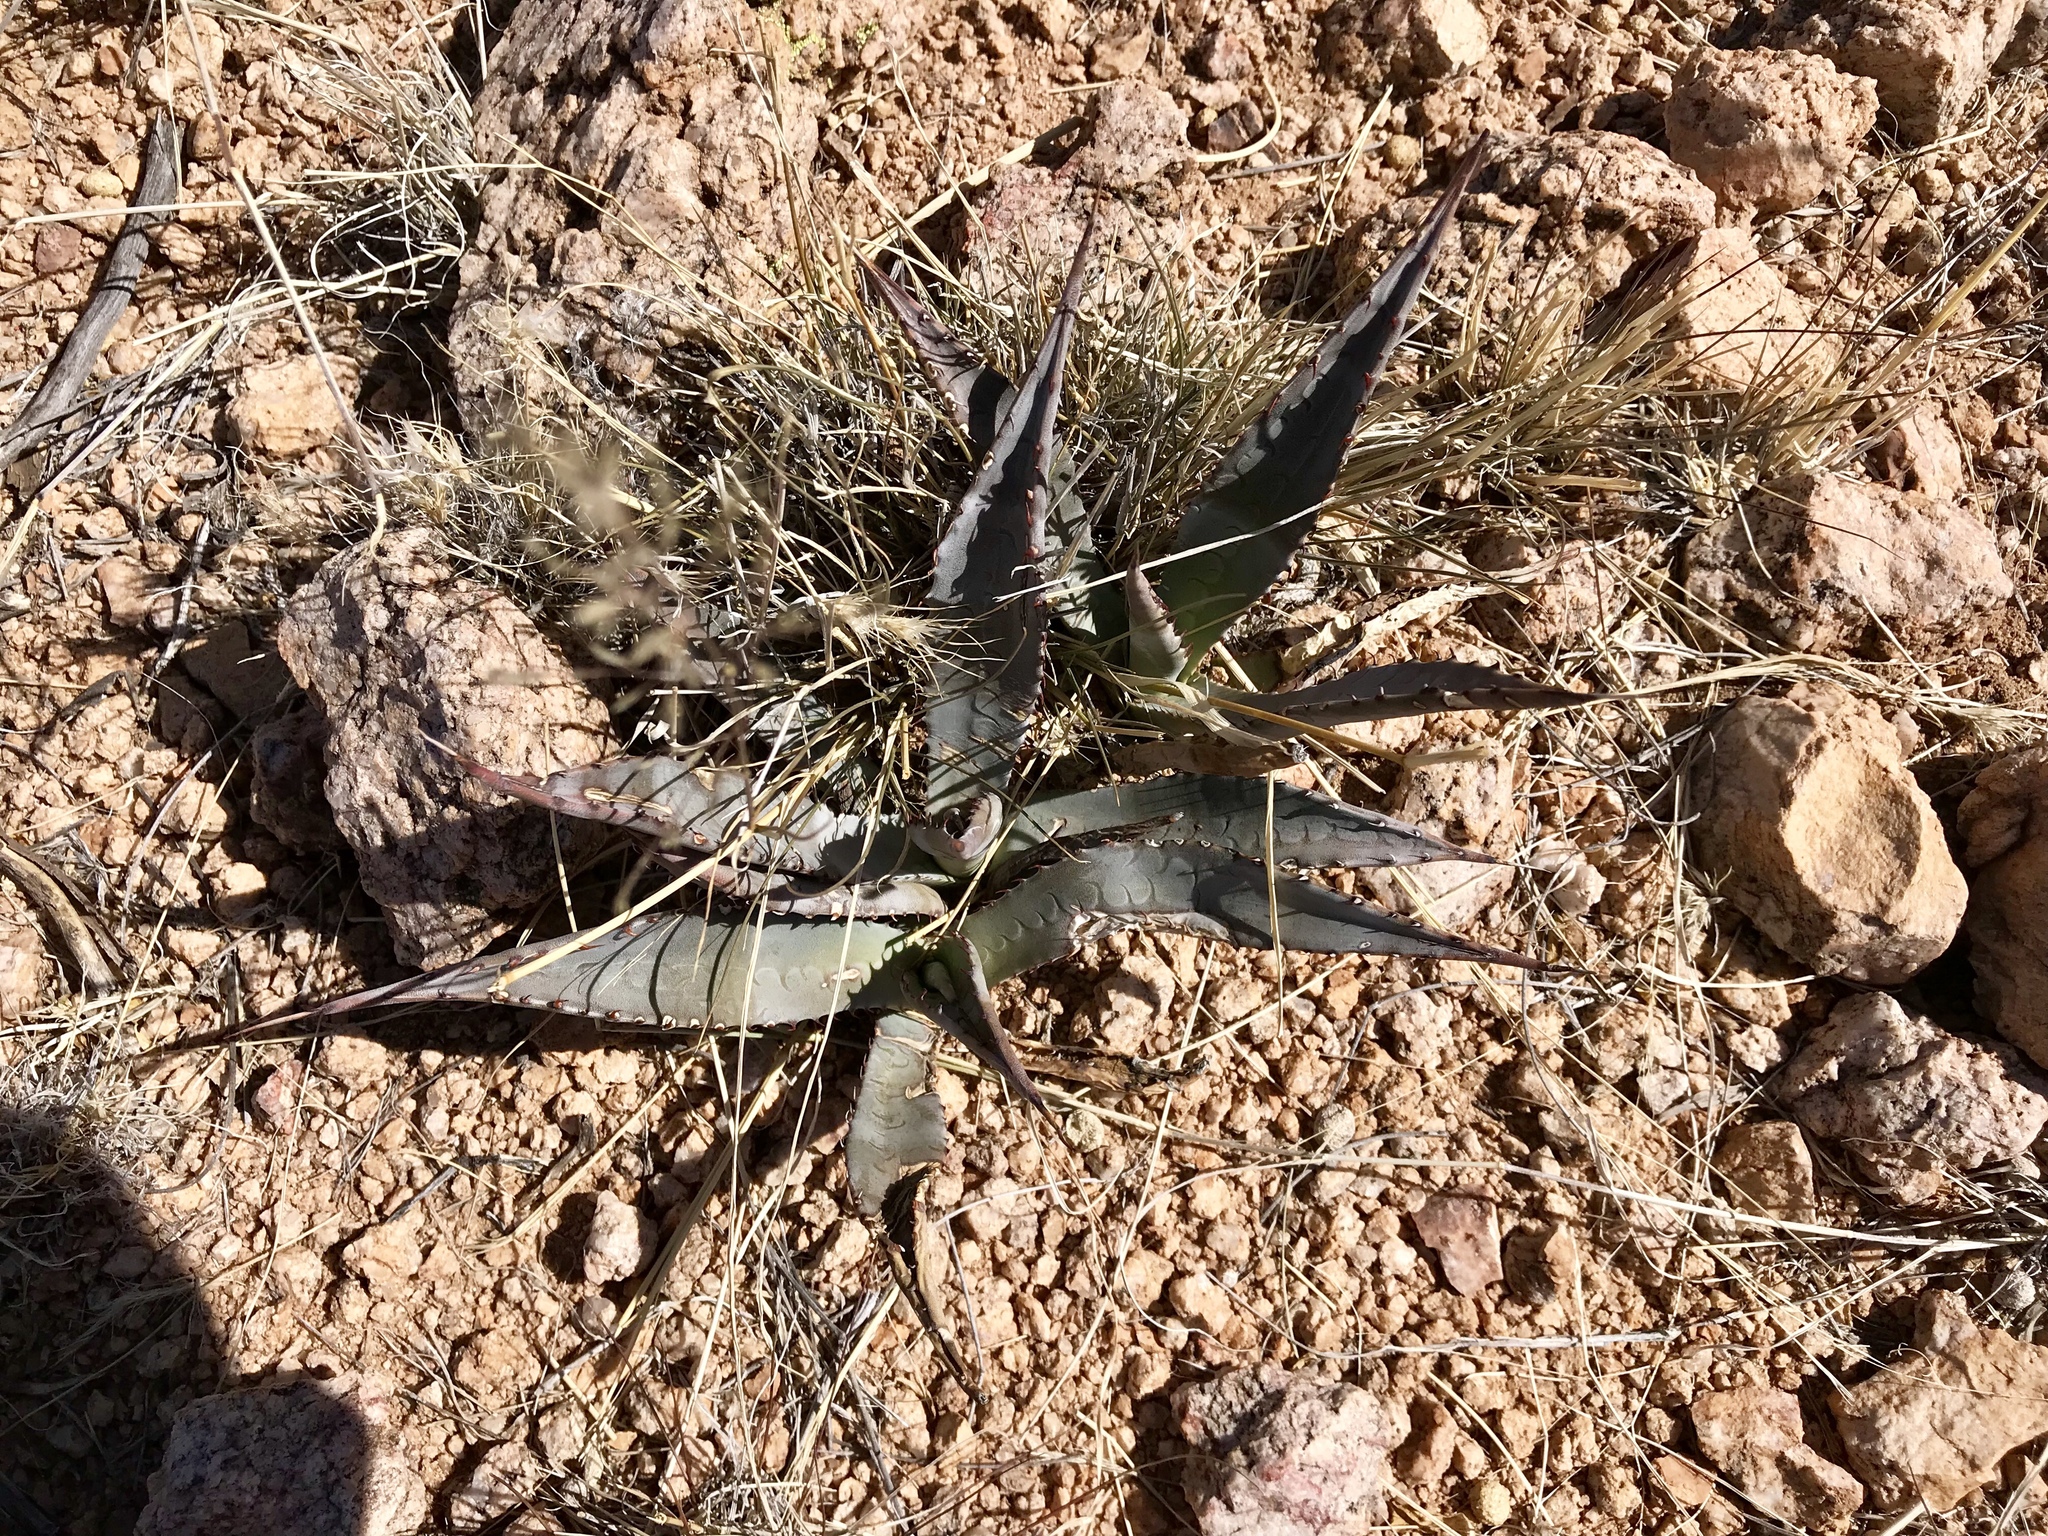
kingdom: Plantae
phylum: Tracheophyta
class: Liliopsida
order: Asparagales
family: Asparagaceae
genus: Agave
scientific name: Agave palmeri
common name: Palmer agave
